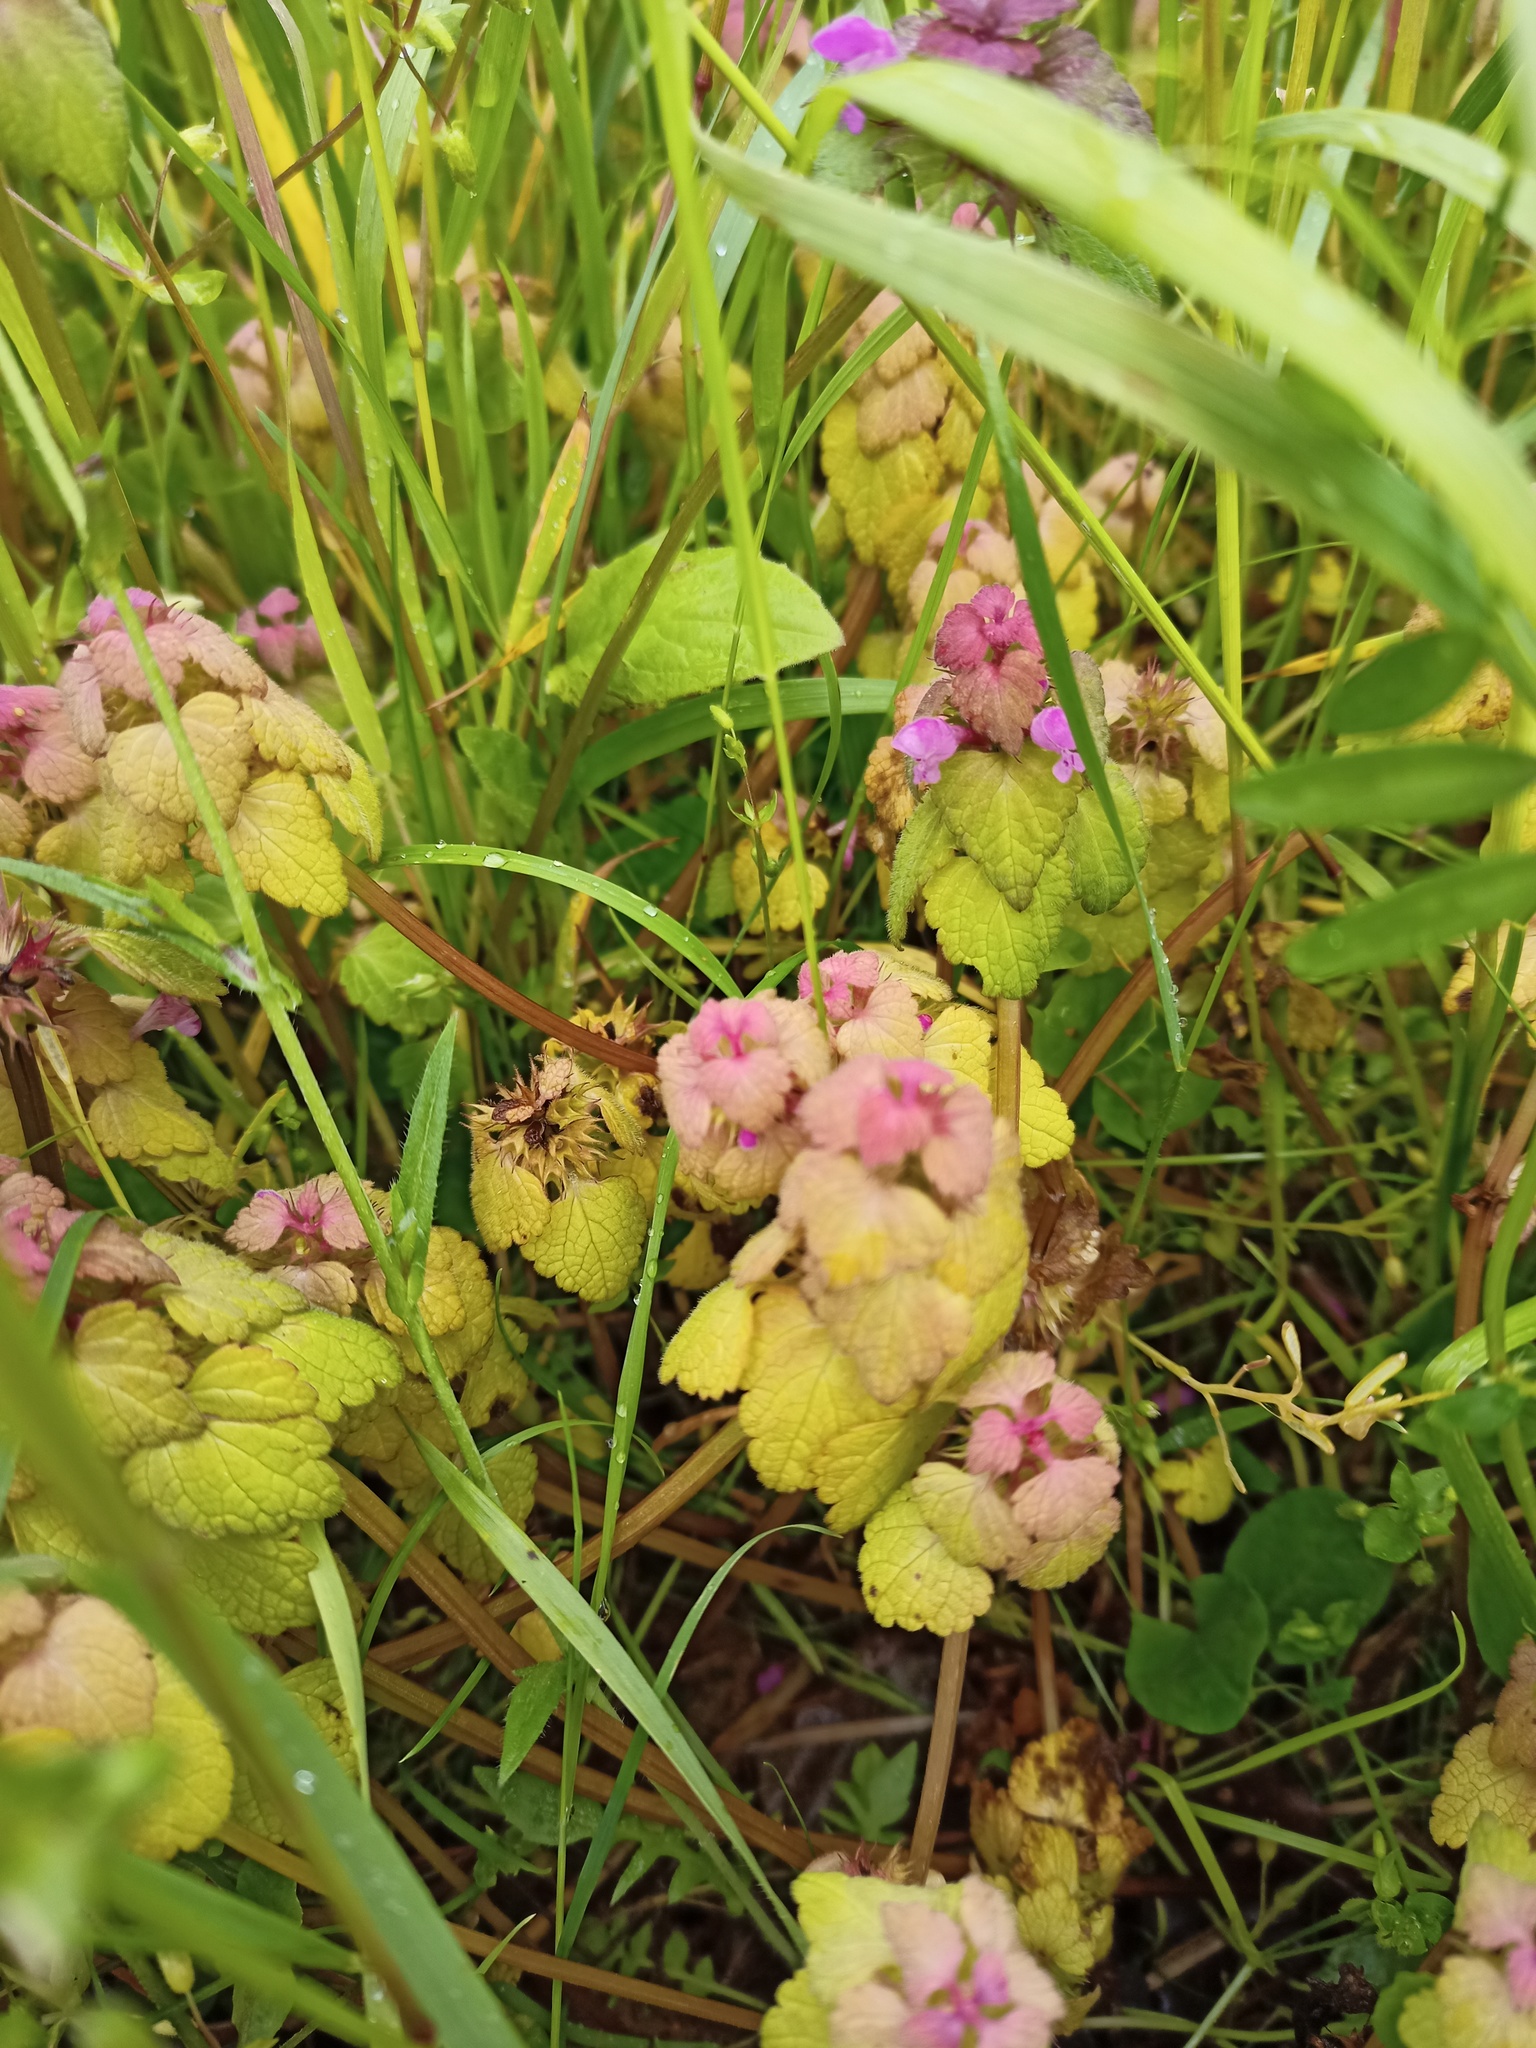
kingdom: Plantae
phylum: Tracheophyta
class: Magnoliopsida
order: Lamiales
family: Lamiaceae
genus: Lamium
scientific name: Lamium purpureum
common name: Red dead-nettle
